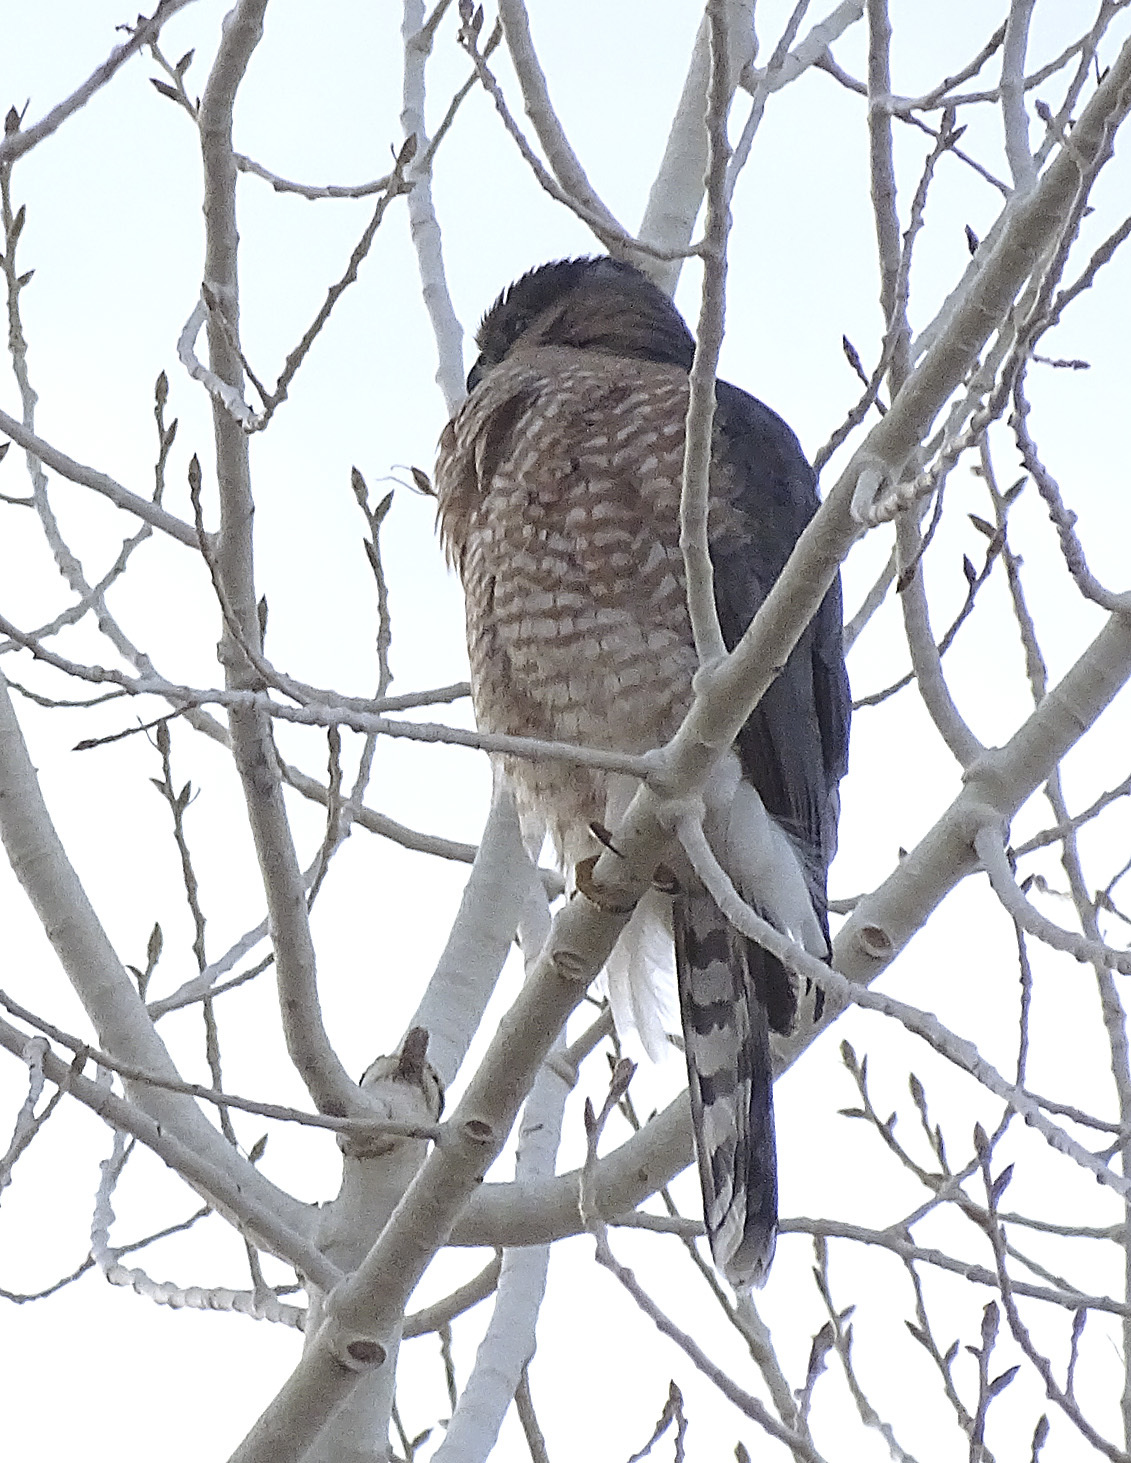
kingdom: Animalia
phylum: Chordata
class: Aves
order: Accipitriformes
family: Accipitridae
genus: Accipiter
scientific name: Accipiter cooperii
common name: Cooper's hawk
